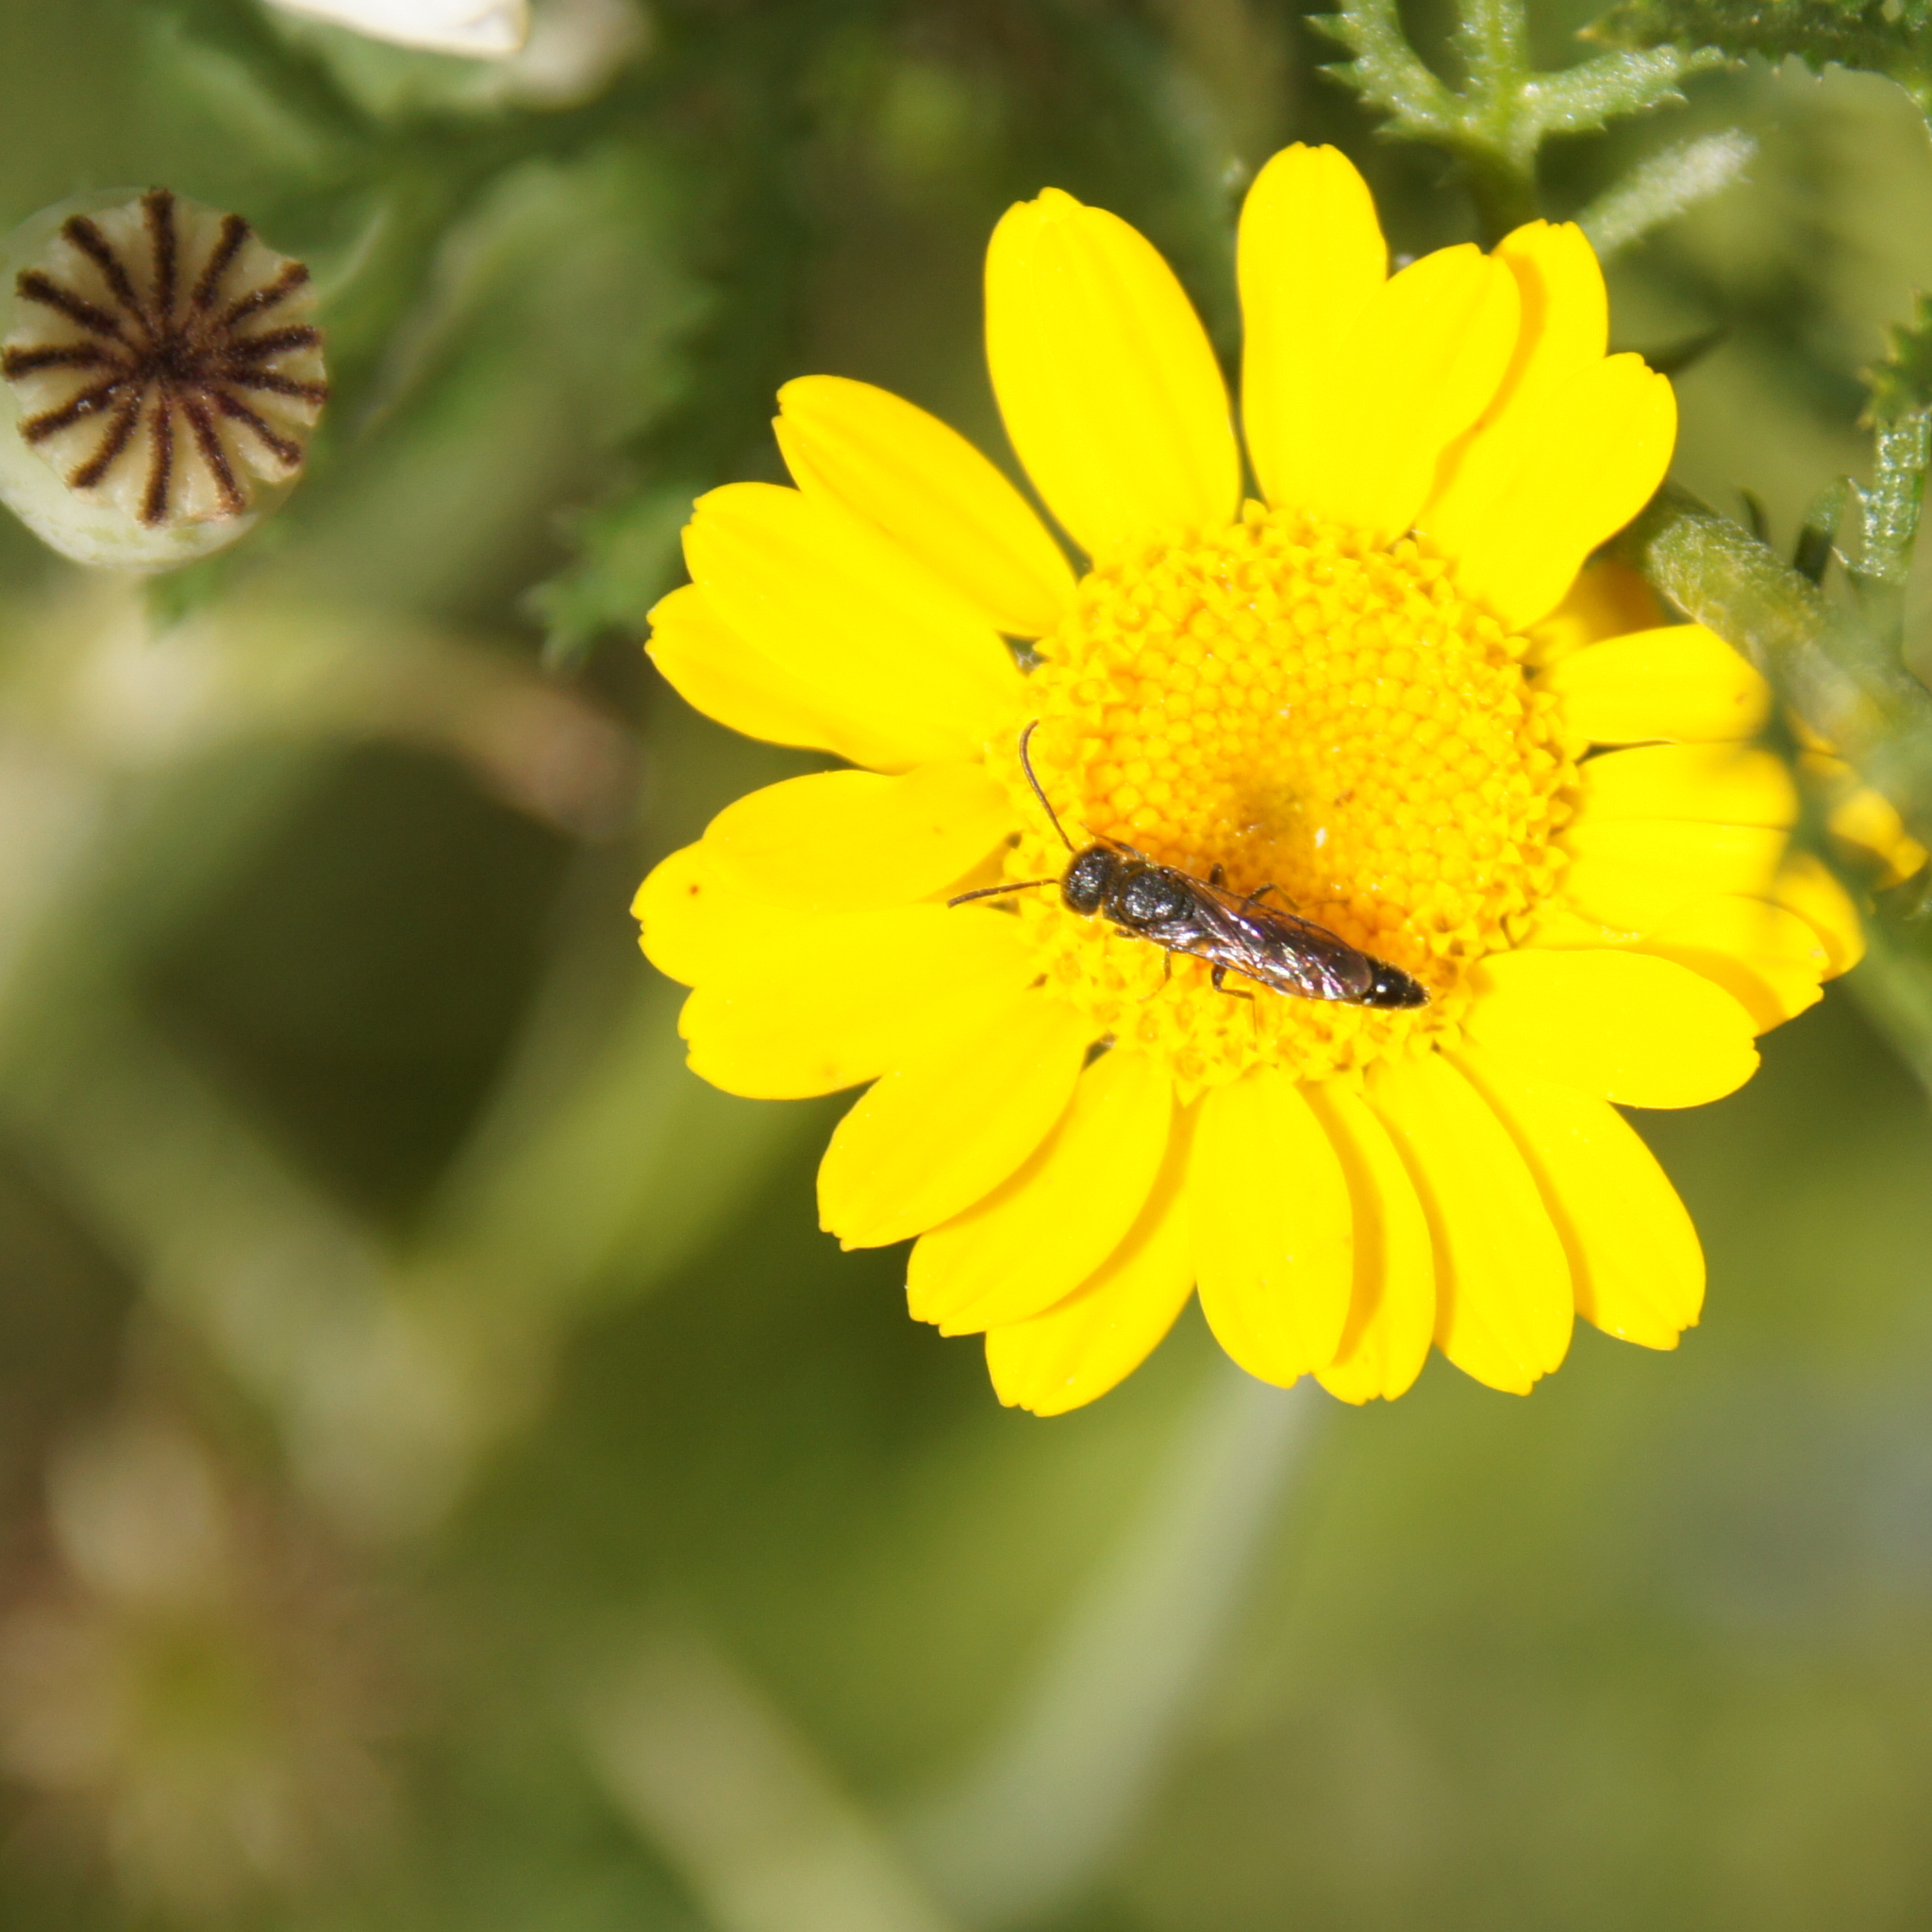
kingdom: Animalia
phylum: Arthropoda
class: Insecta
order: Hymenoptera
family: Sapygidae
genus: Sapygina
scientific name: Sapygina decemguttata
